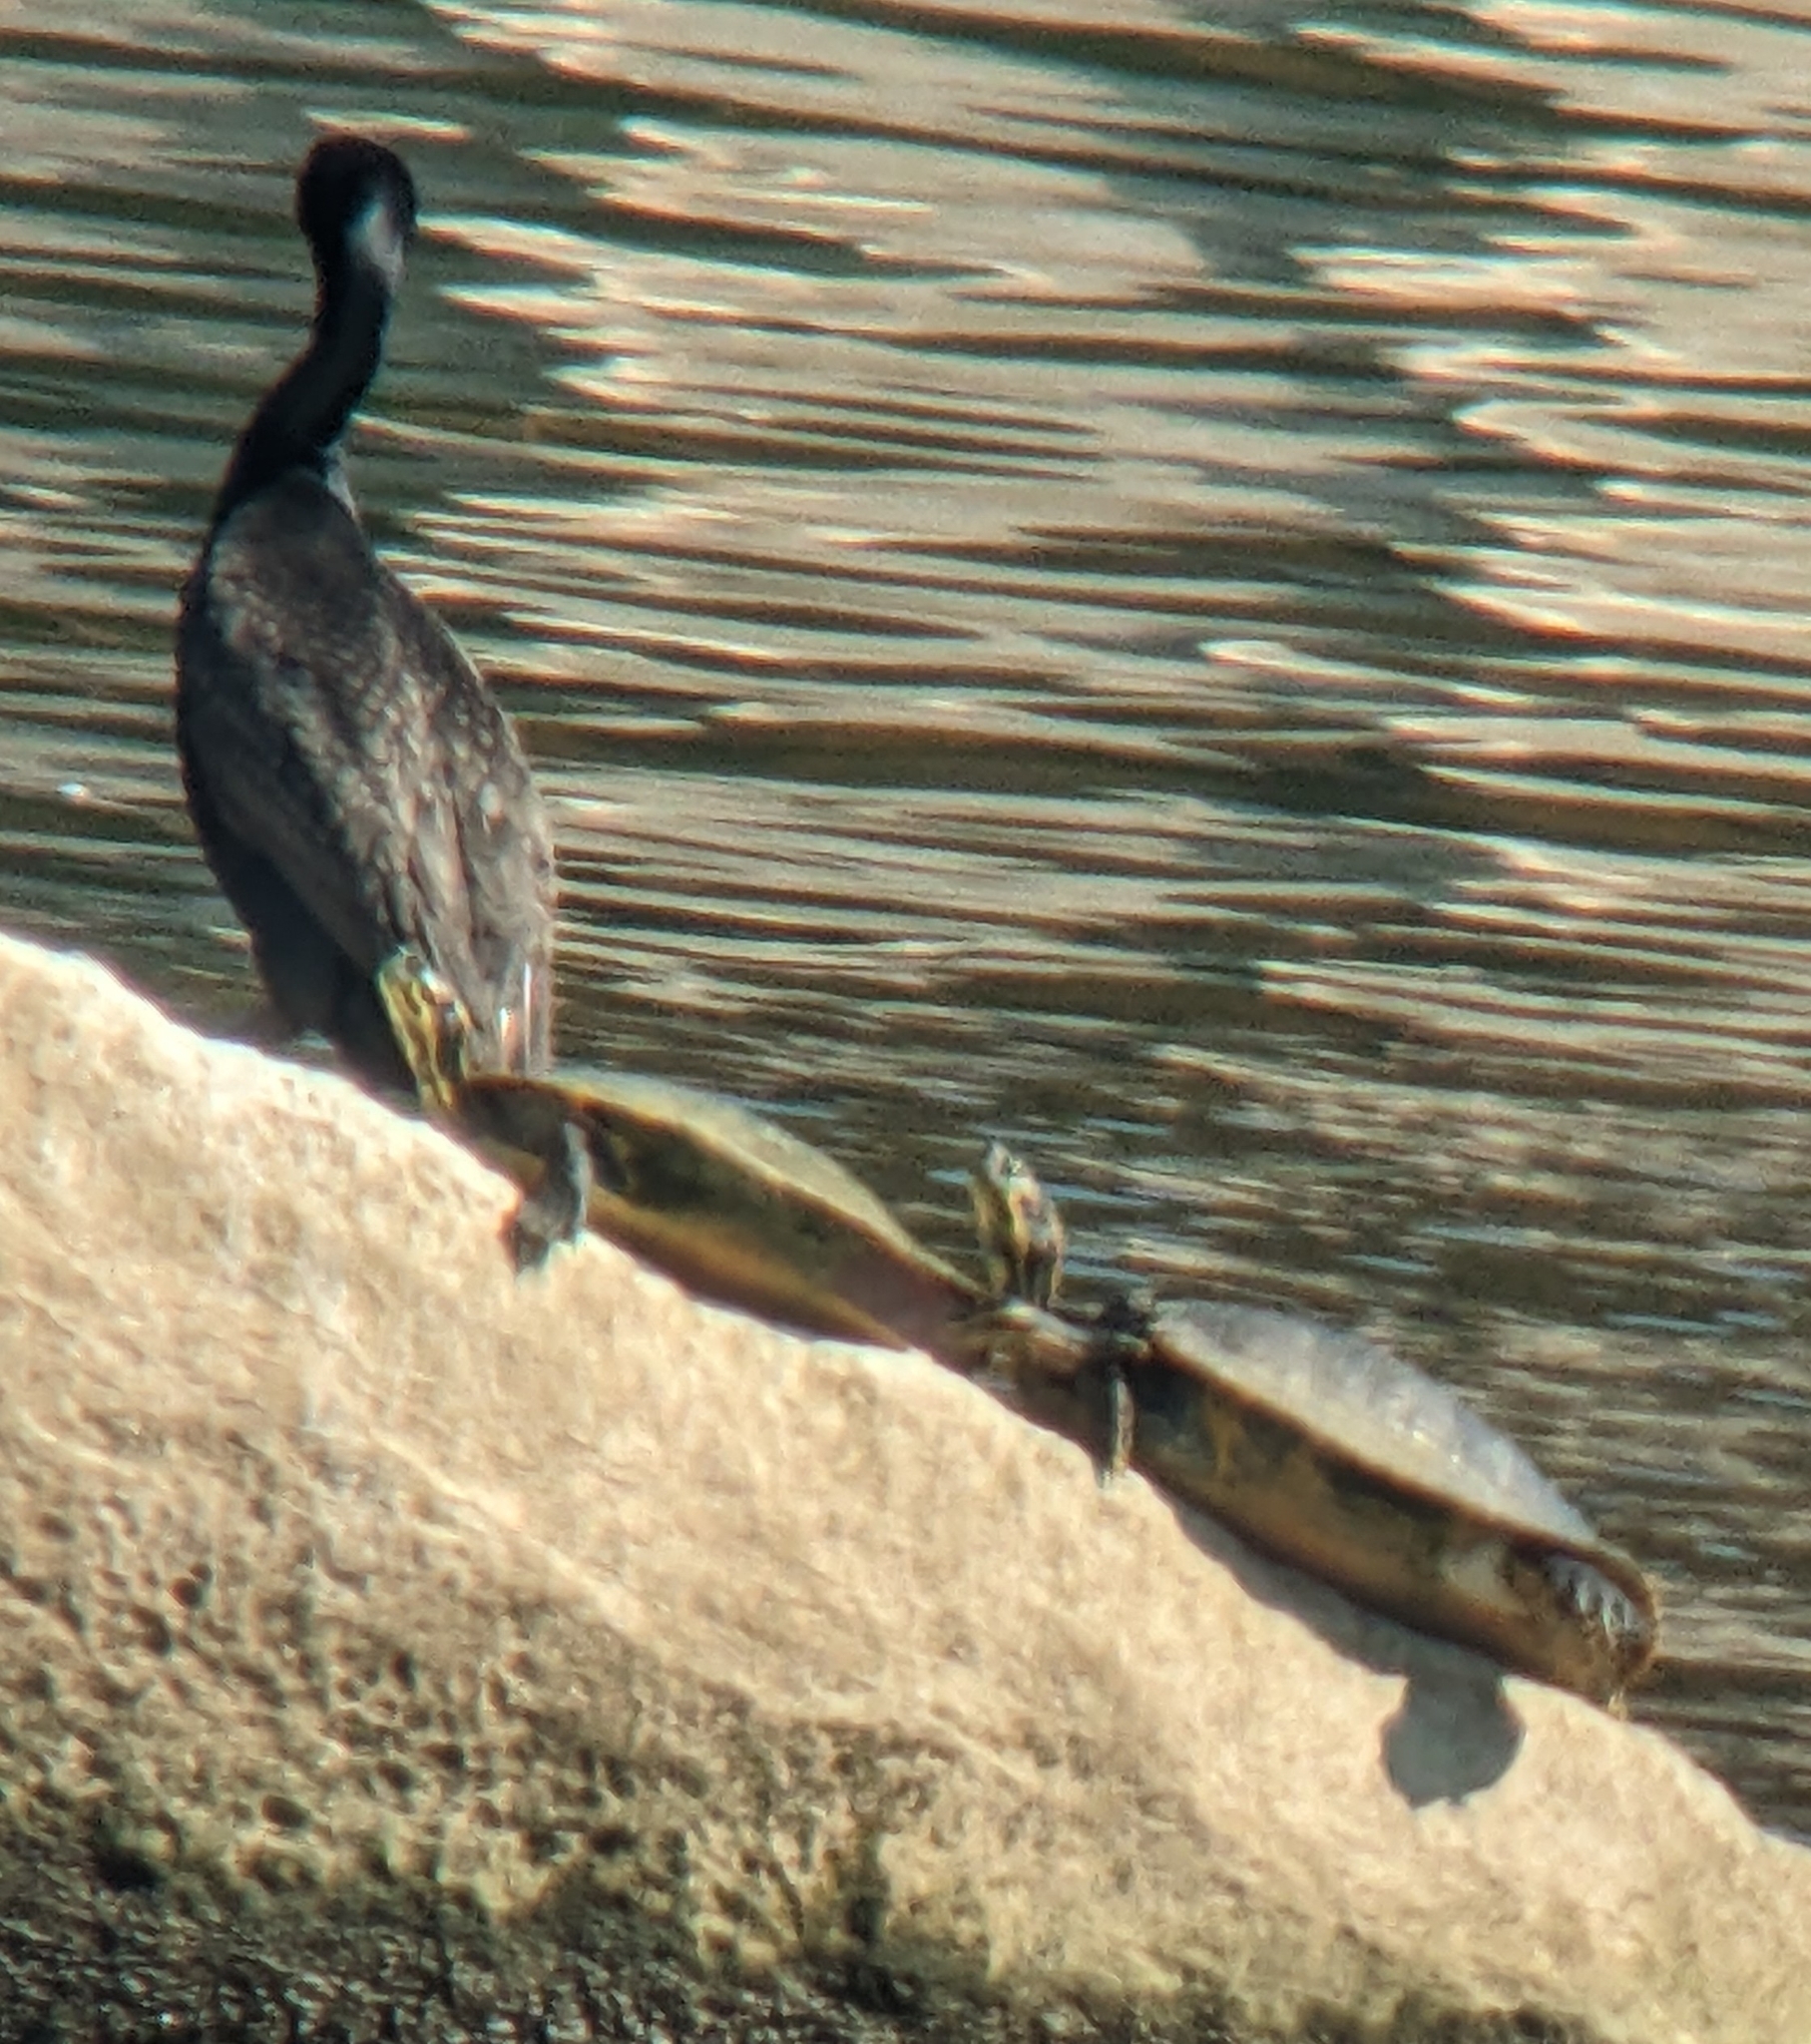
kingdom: Animalia
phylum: Chordata
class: Testudines
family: Emydidae
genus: Pseudemys
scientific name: Pseudemys concinna
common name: Eastern river cooter
